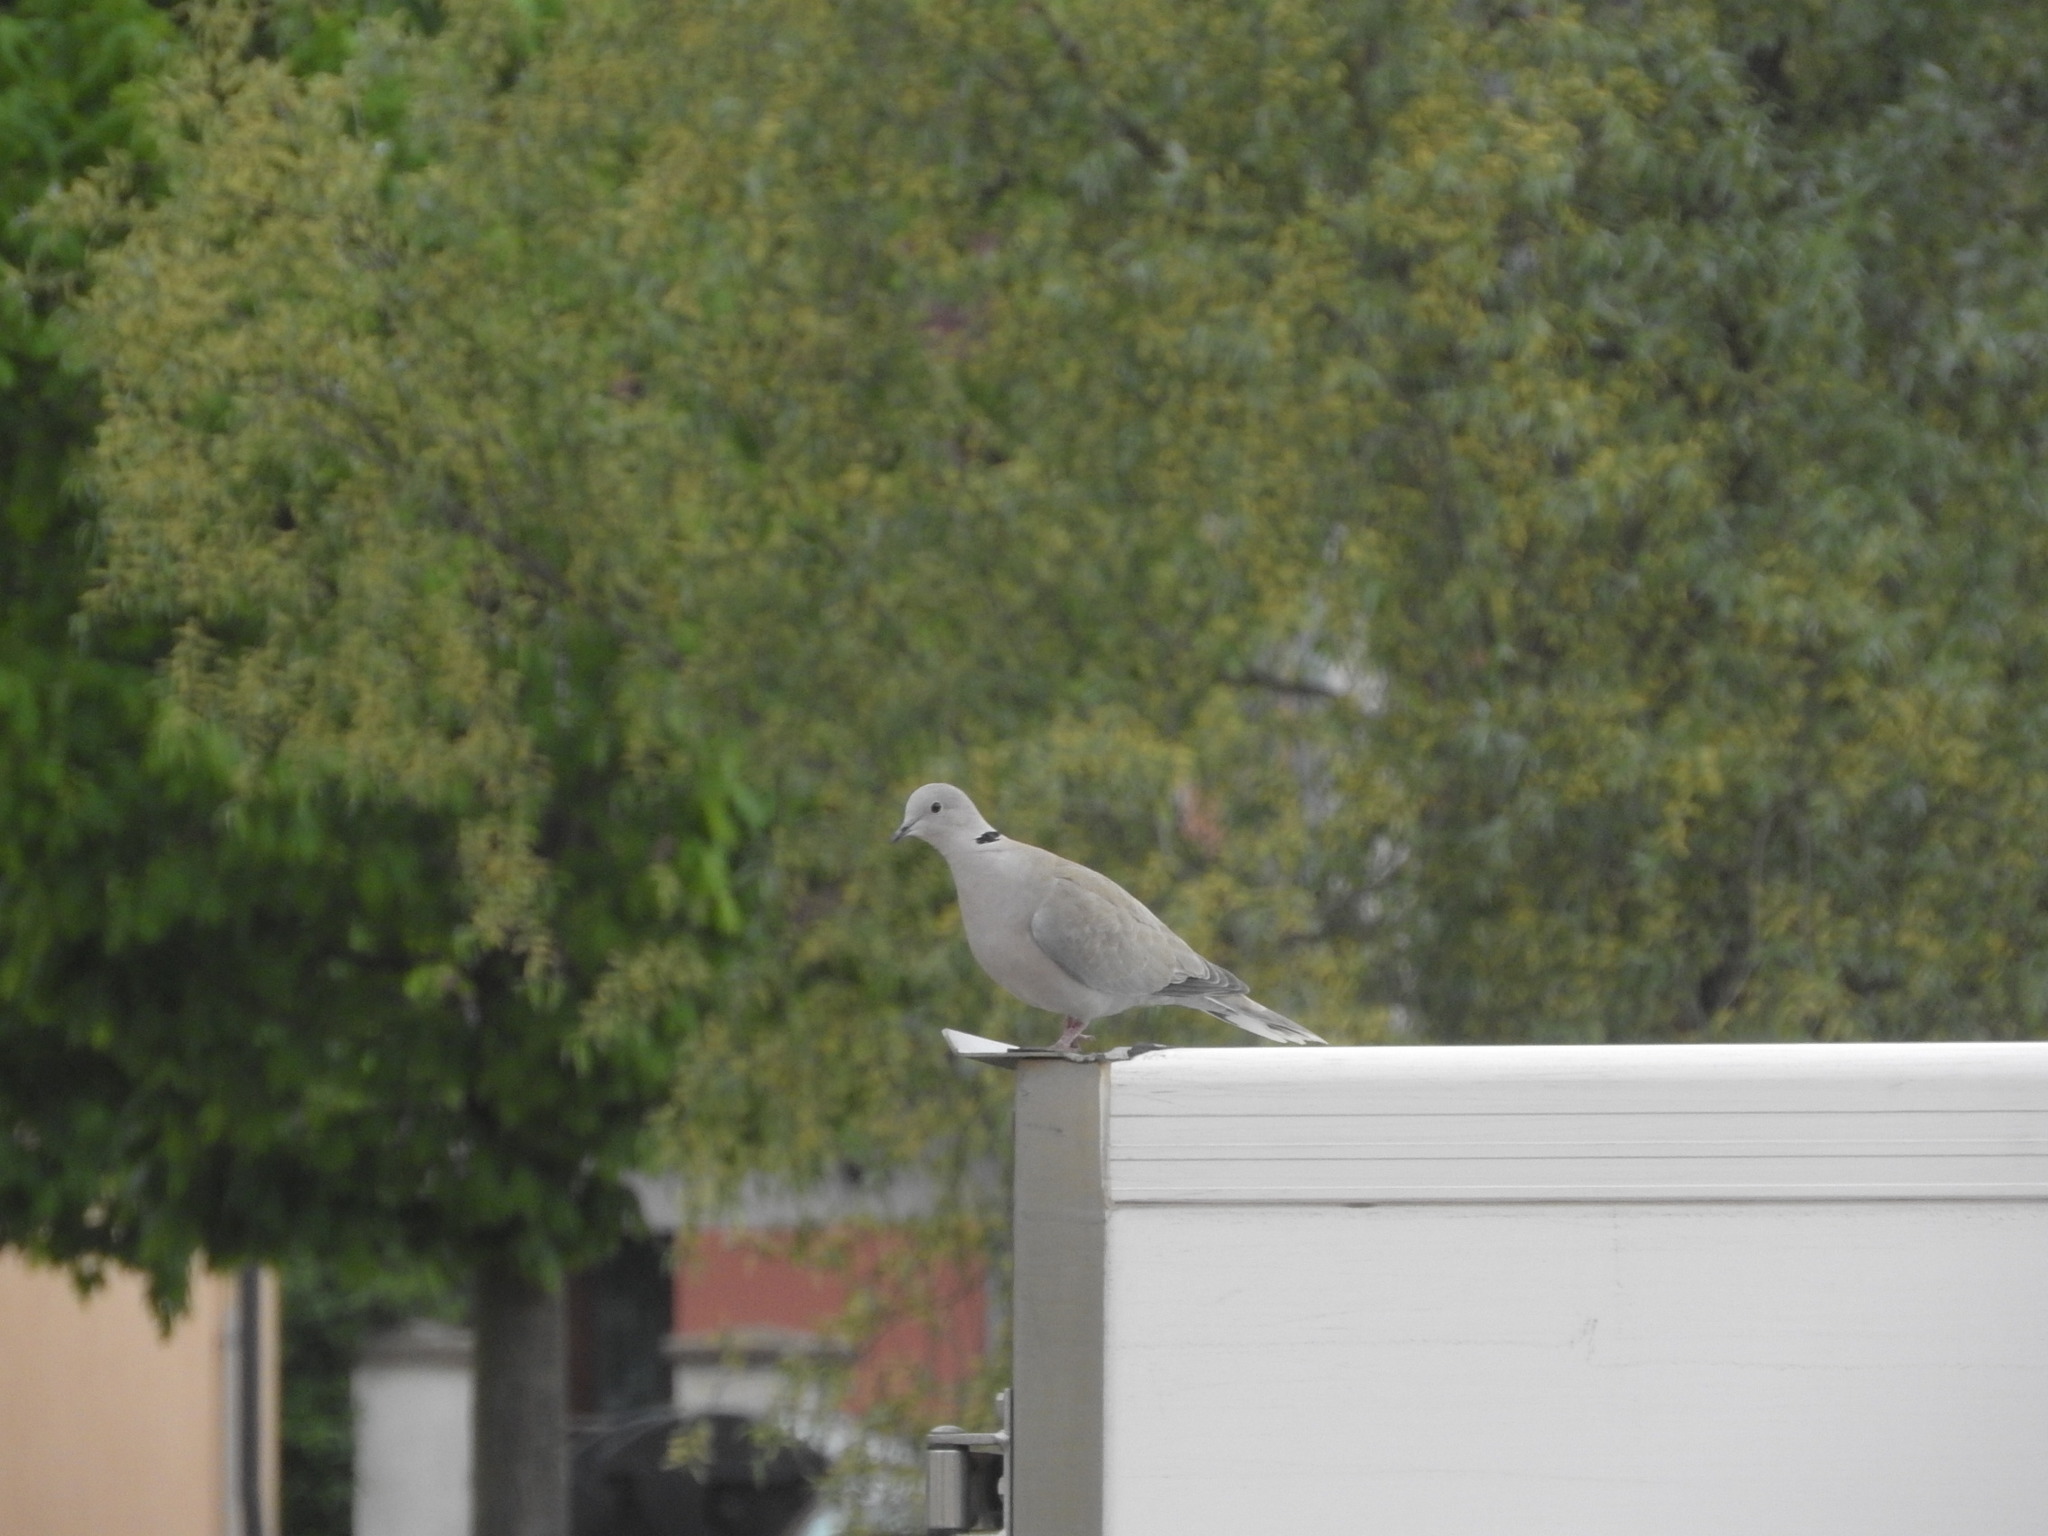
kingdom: Animalia
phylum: Chordata
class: Aves
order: Columbiformes
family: Columbidae
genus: Streptopelia
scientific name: Streptopelia decaocto
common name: Eurasian collared dove
